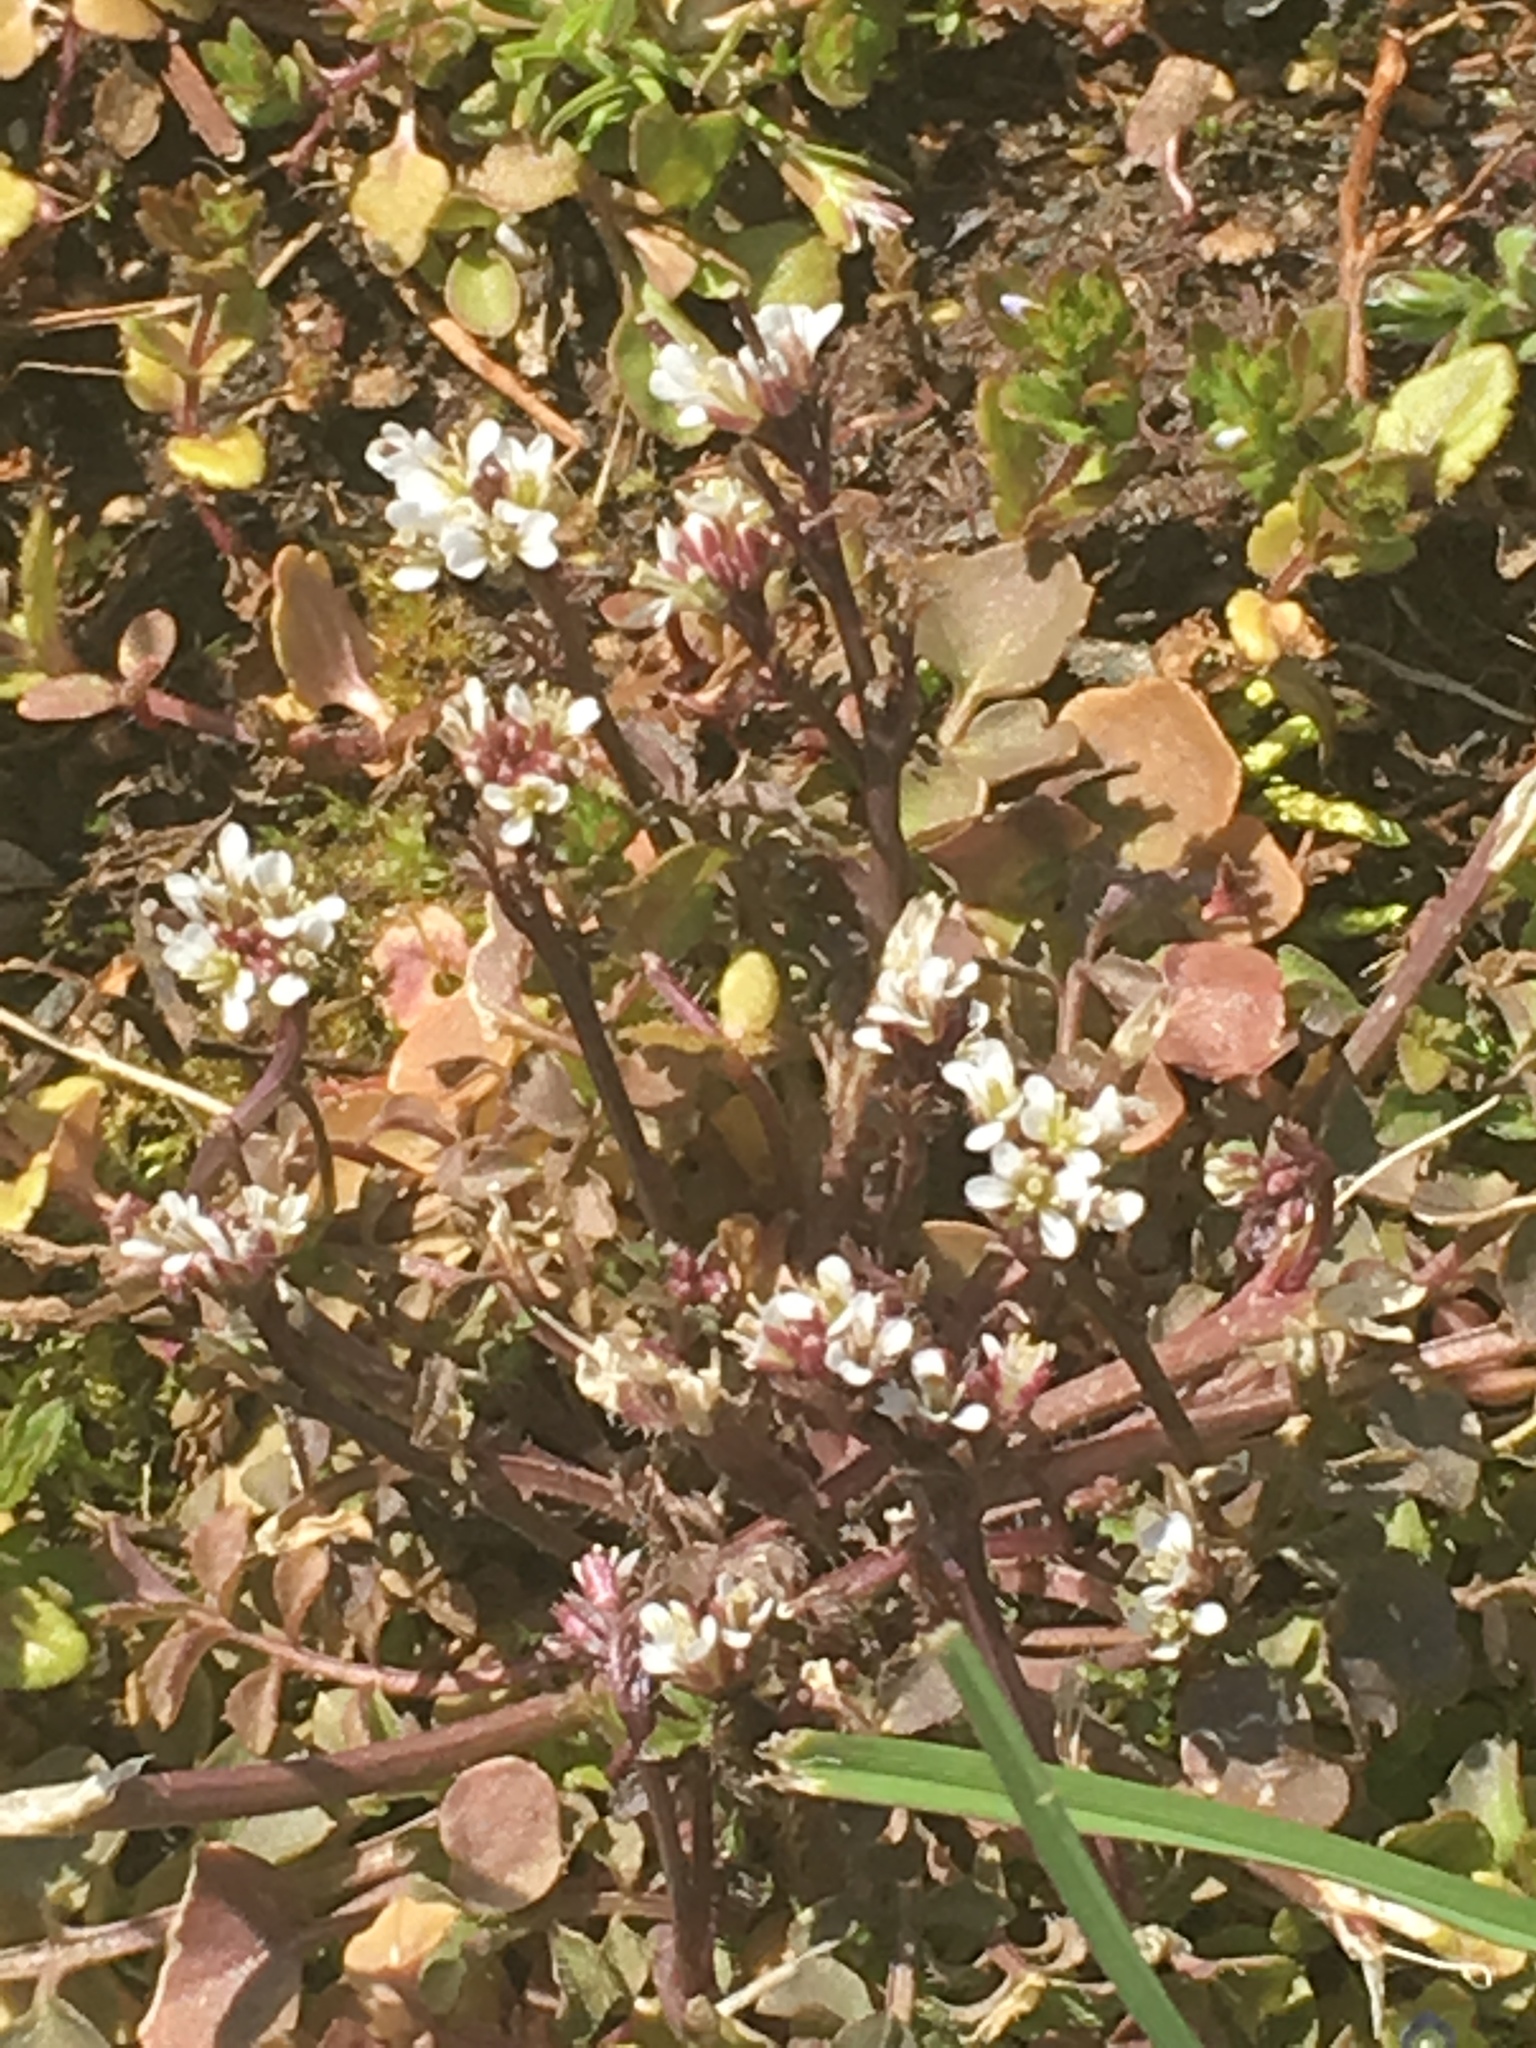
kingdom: Plantae
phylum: Tracheophyta
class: Magnoliopsida
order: Brassicales
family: Brassicaceae
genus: Cardamine
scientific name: Cardamine hirsuta
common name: Hairy bittercress
